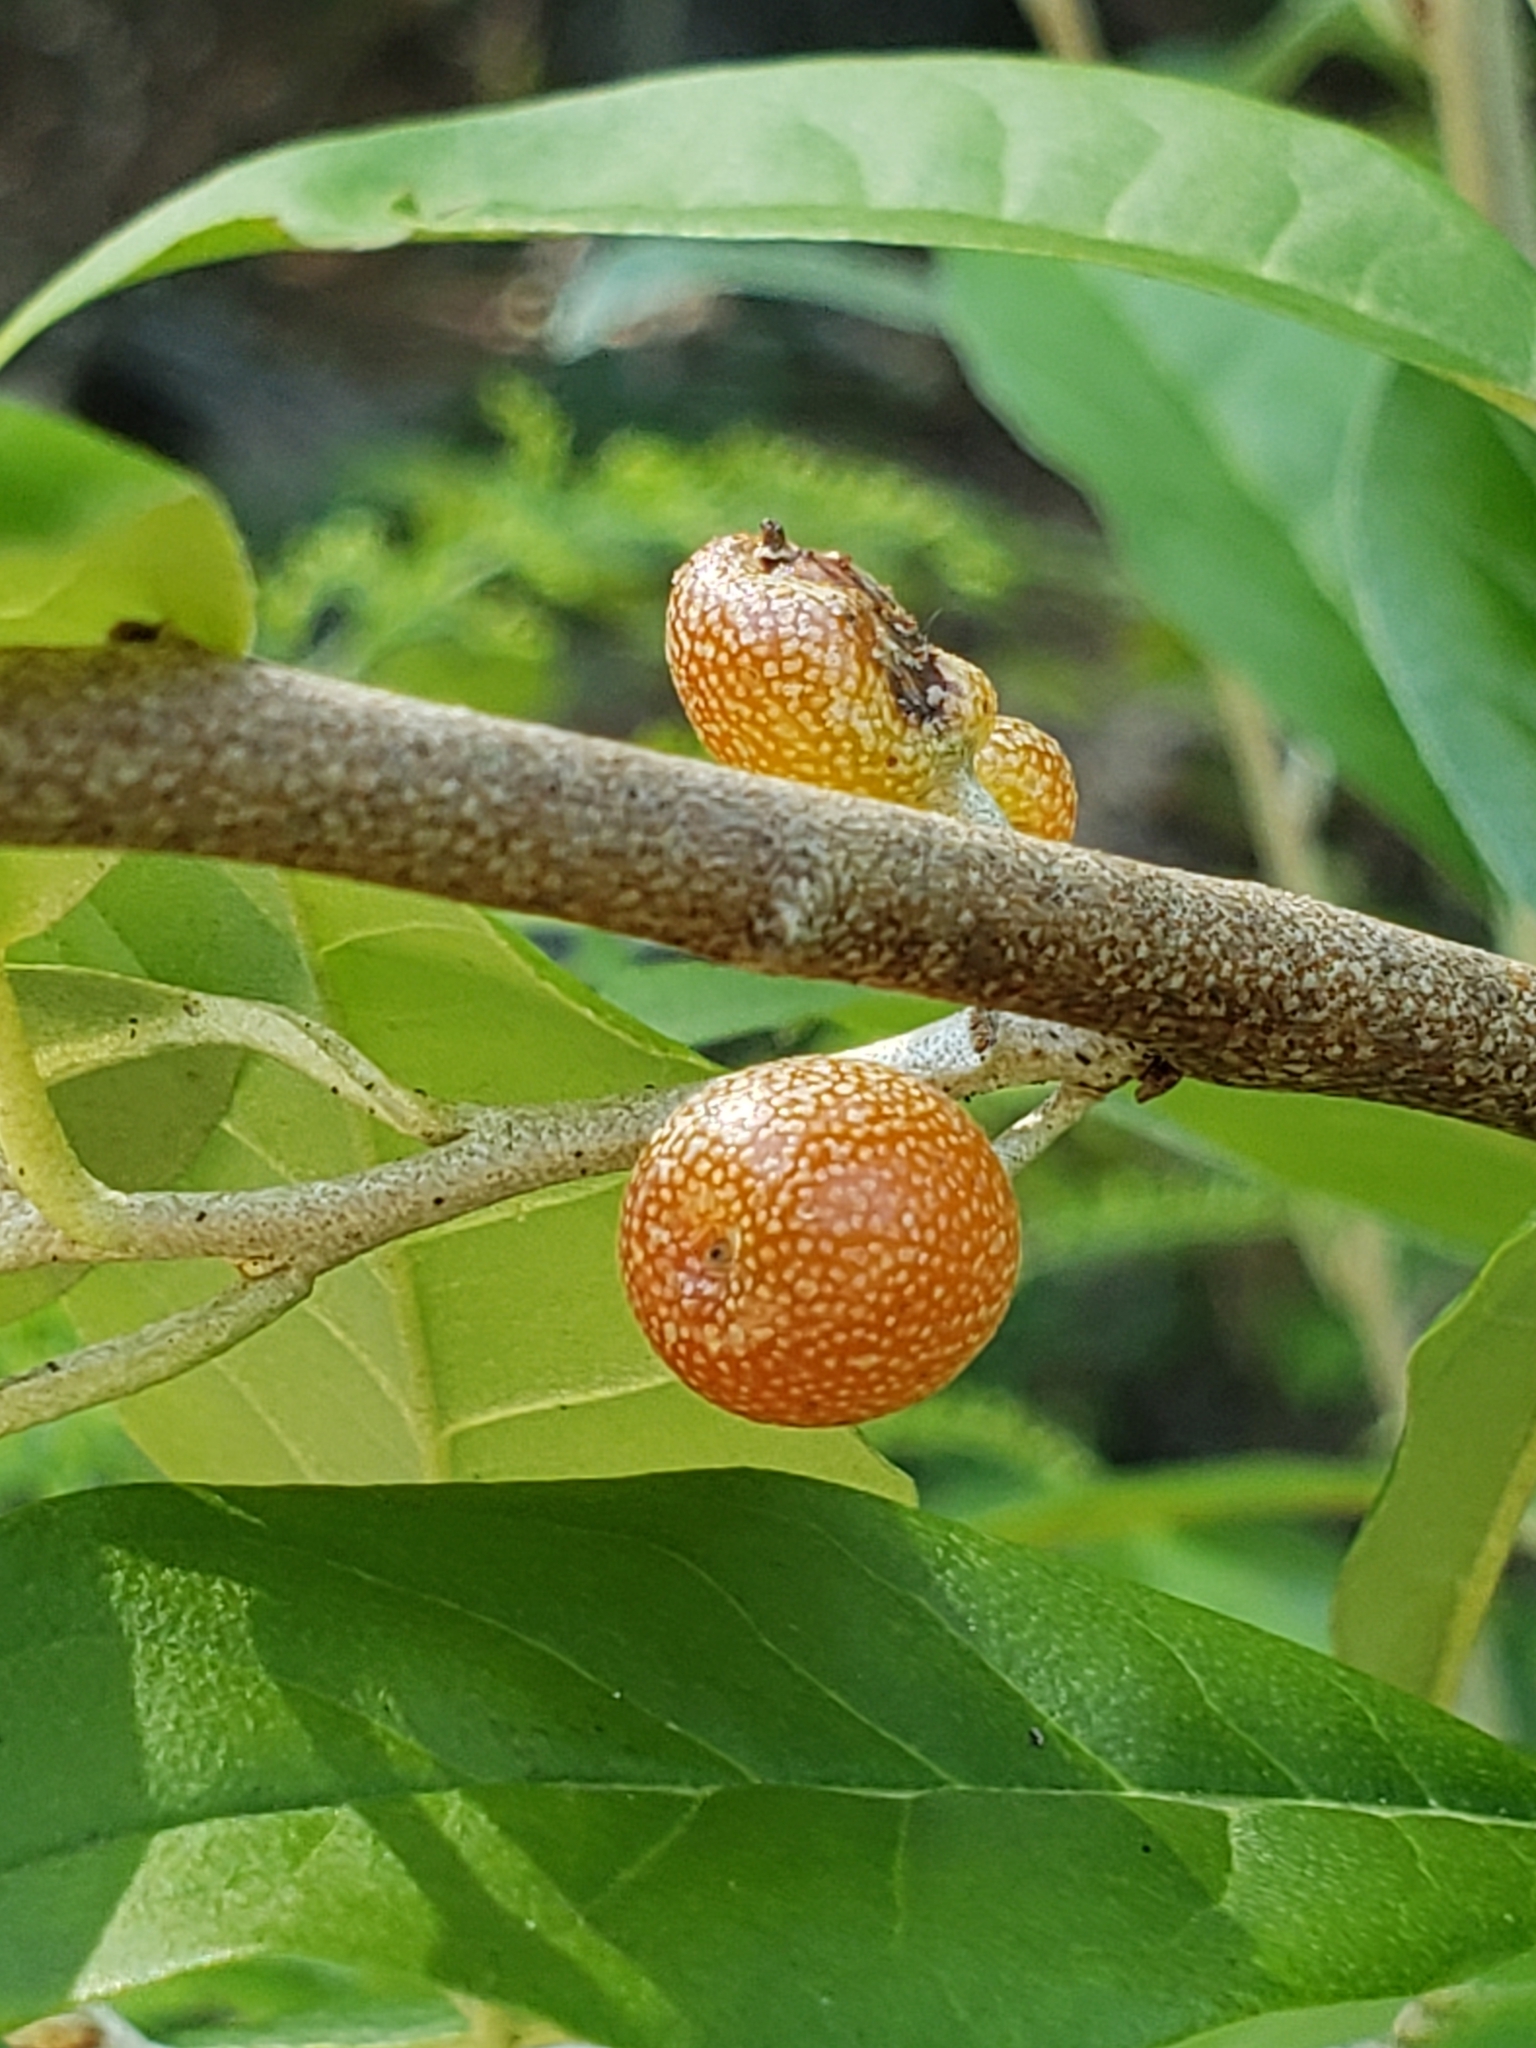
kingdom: Plantae
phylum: Tracheophyta
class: Magnoliopsida
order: Rosales
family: Elaeagnaceae
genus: Elaeagnus
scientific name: Elaeagnus umbellata
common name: Autumn olive
